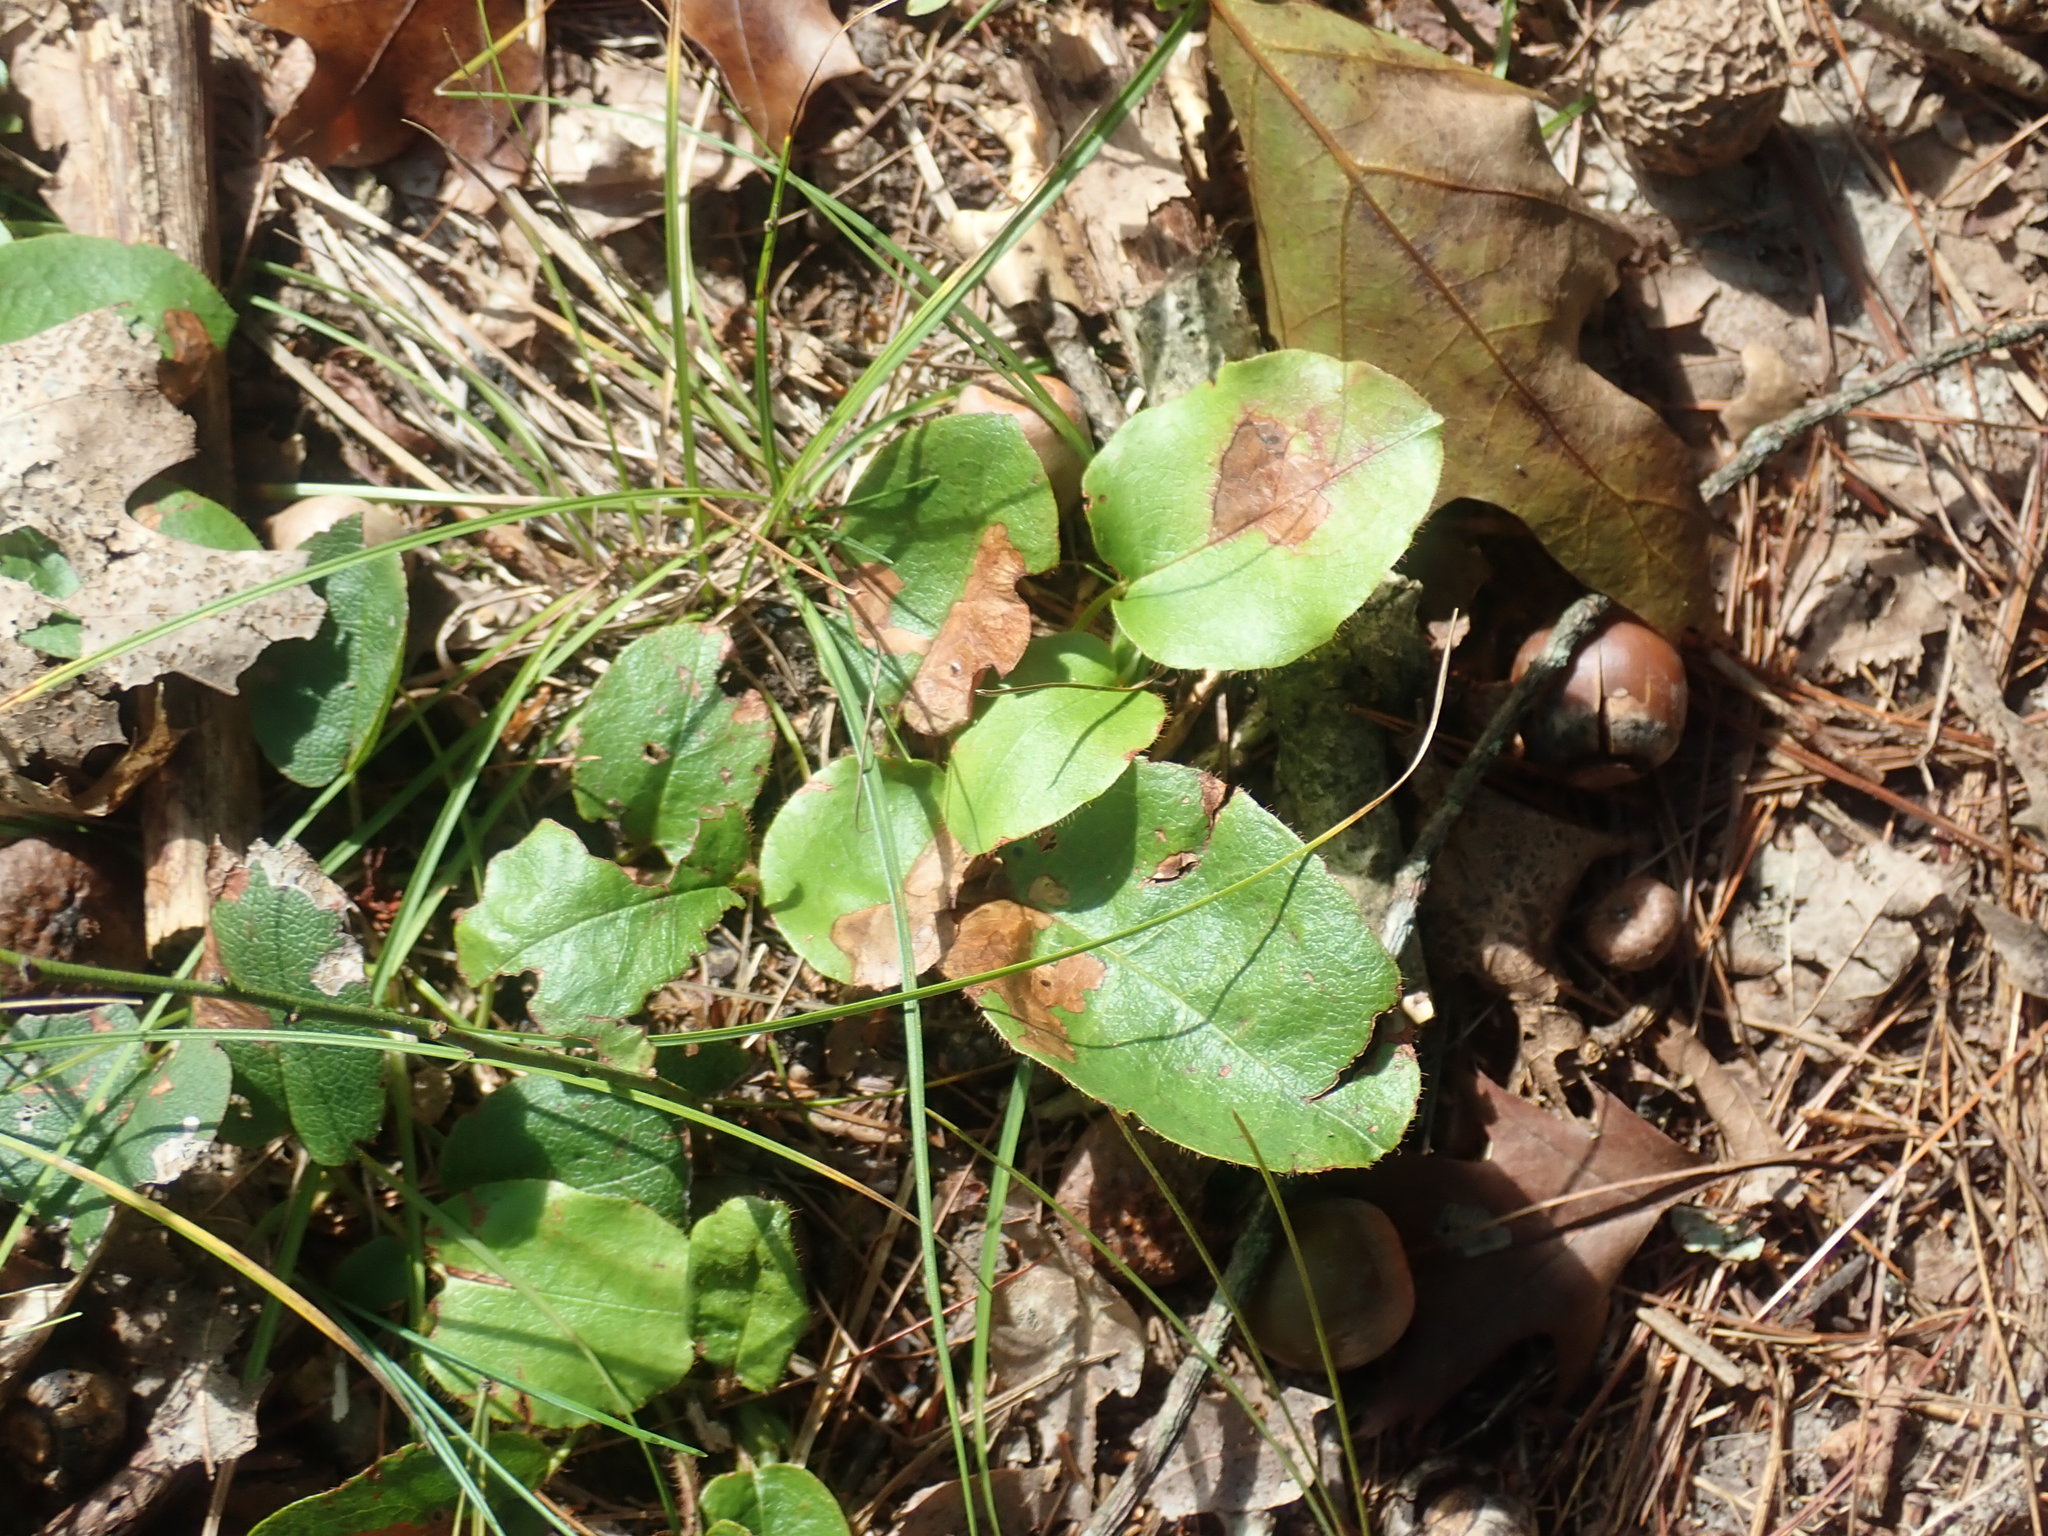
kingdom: Plantae
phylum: Tracheophyta
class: Magnoliopsida
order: Ericales
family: Ericaceae
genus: Epigaea
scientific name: Epigaea repens
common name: Gravelroot
